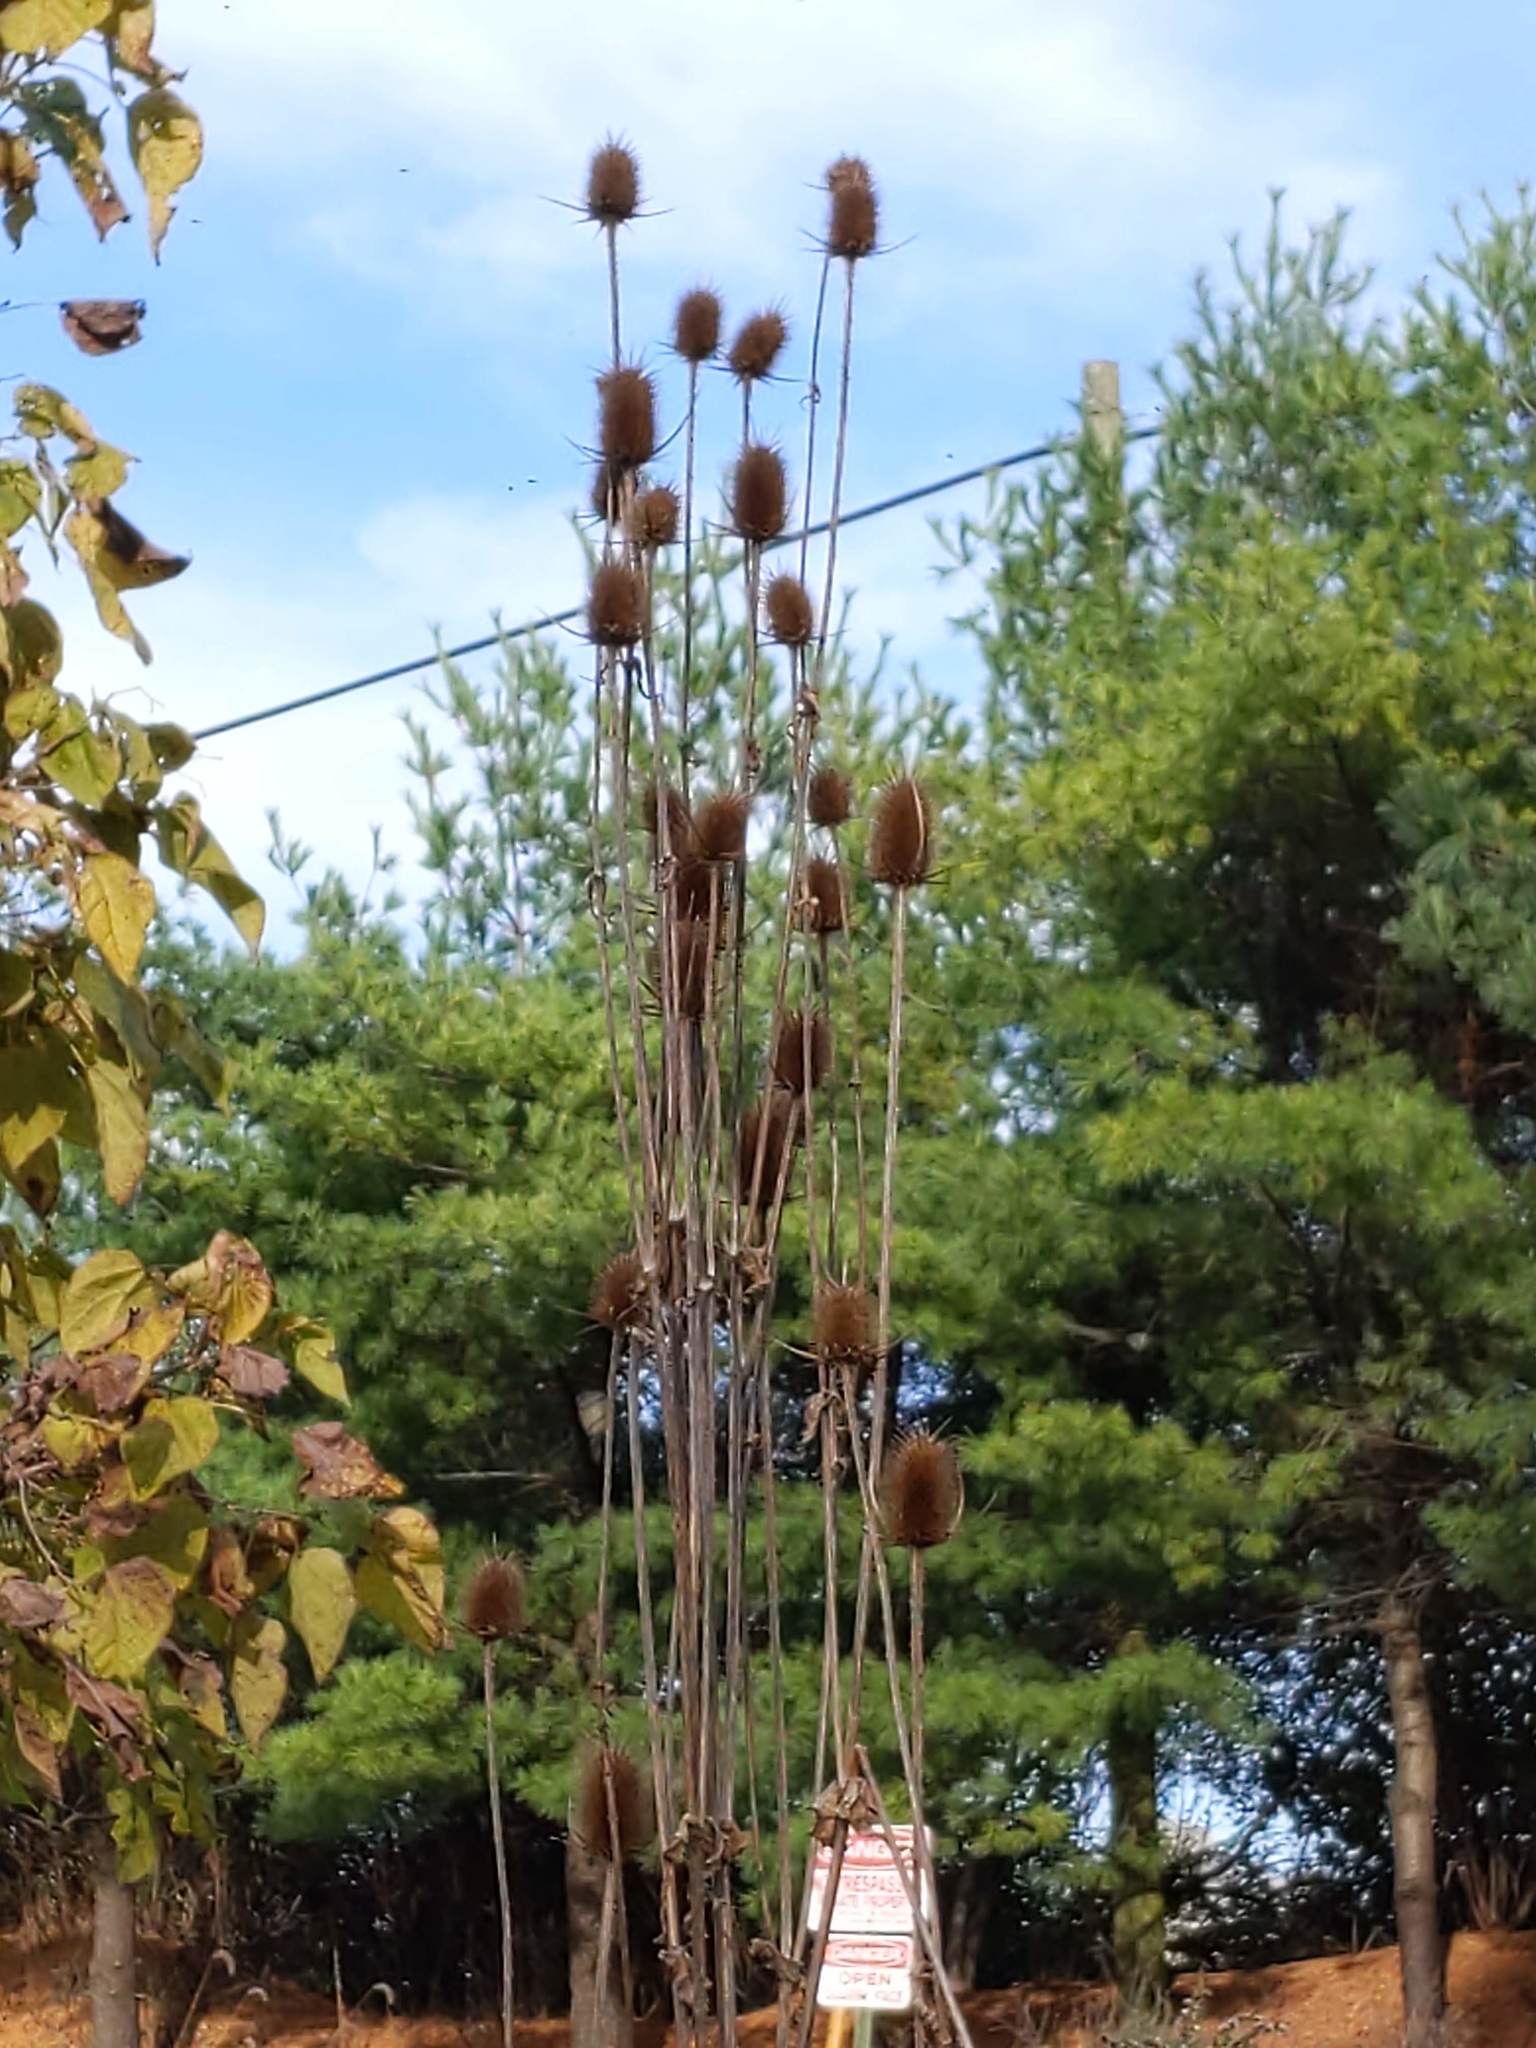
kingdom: Plantae
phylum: Tracheophyta
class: Magnoliopsida
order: Dipsacales
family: Caprifoliaceae
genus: Dipsacus
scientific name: Dipsacus laciniatus
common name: Cut-leaved teasel
